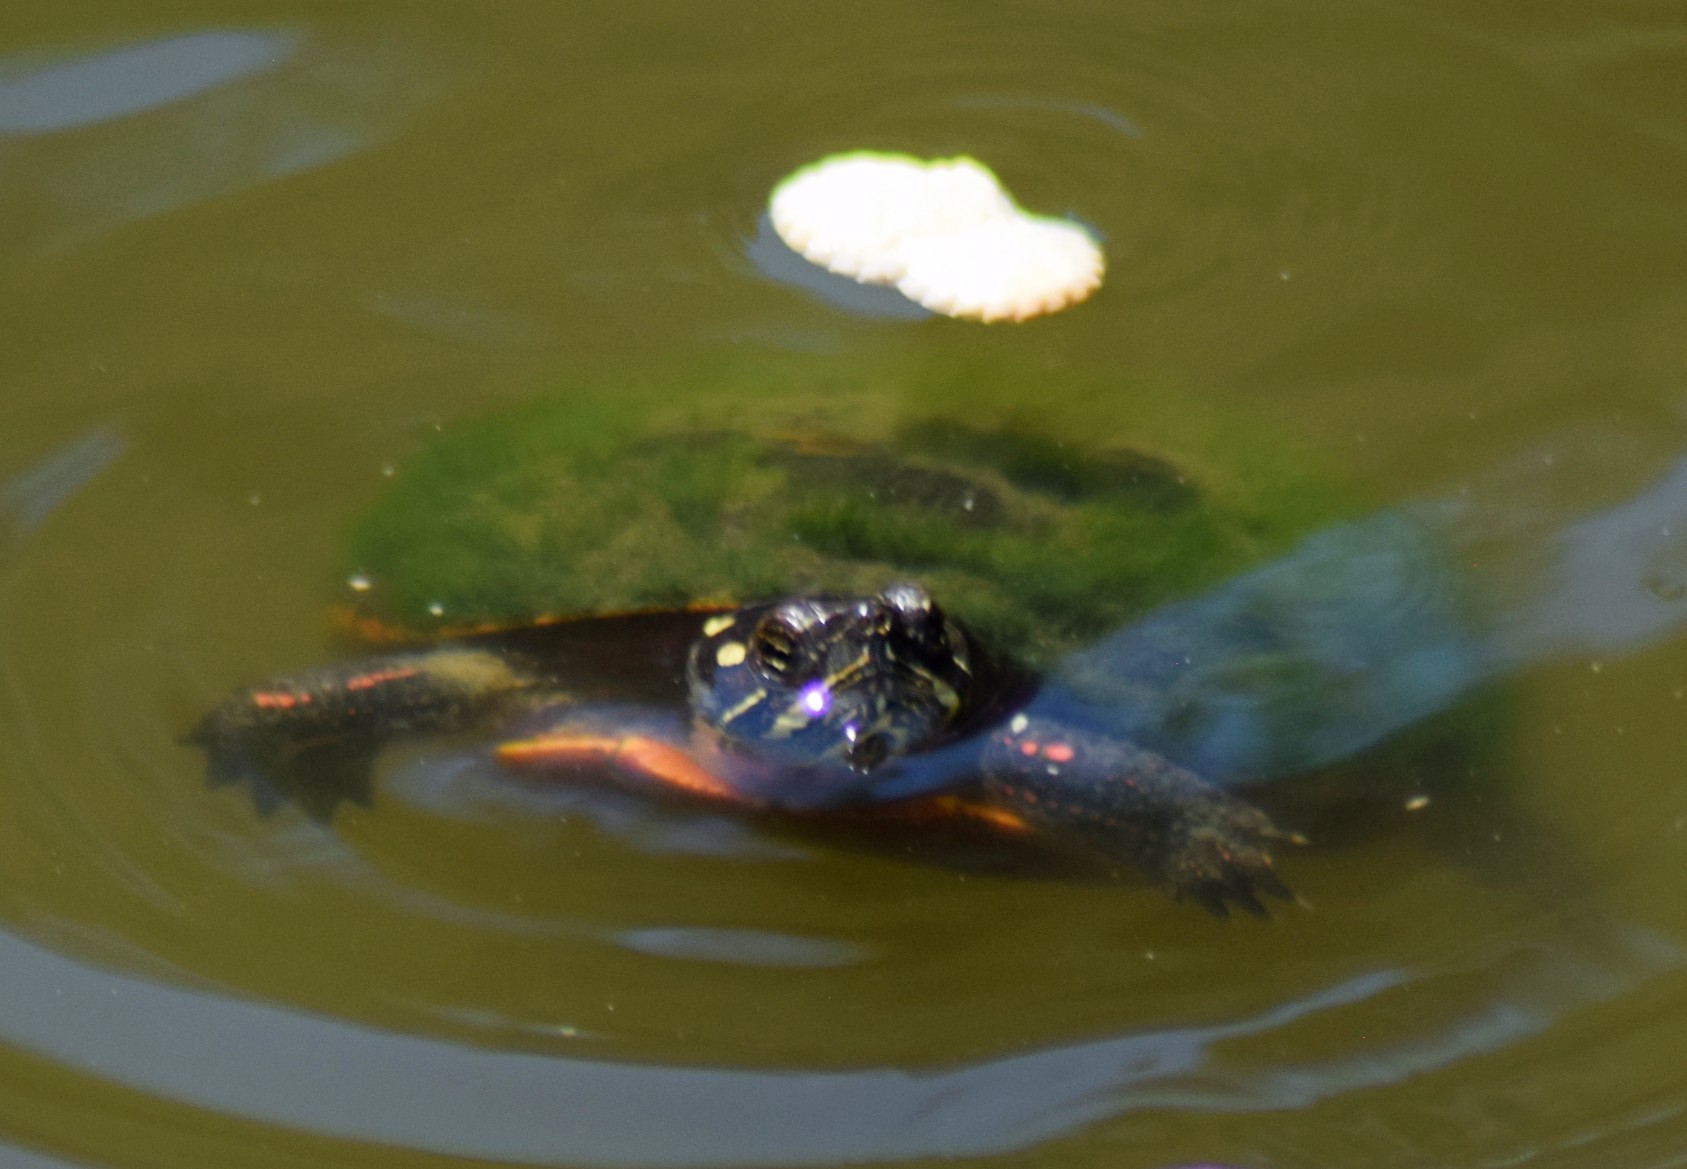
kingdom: Animalia
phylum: Chordata
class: Testudines
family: Emydidae
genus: Chrysemys
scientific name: Chrysemys picta
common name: Painted turtle
